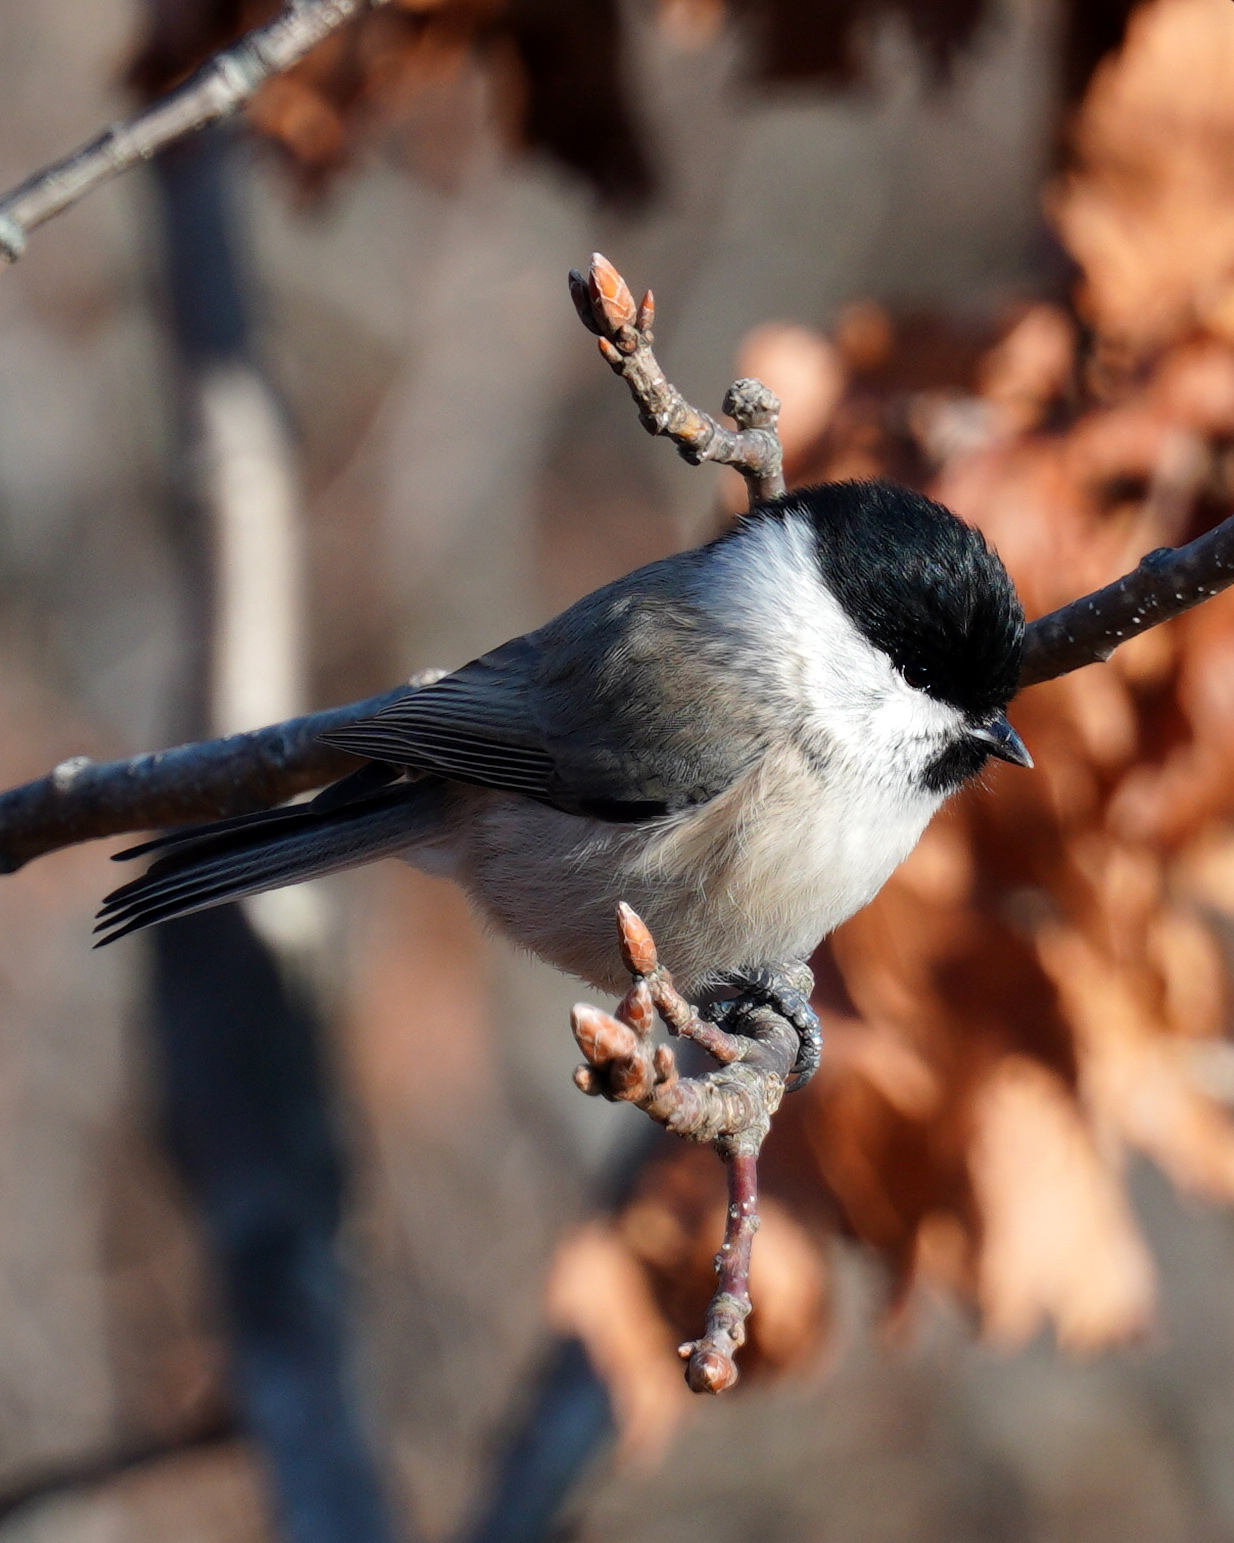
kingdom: Animalia
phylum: Chordata
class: Aves
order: Passeriformes
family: Paridae
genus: Poecile
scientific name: Poecile montanus
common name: Willow tit
